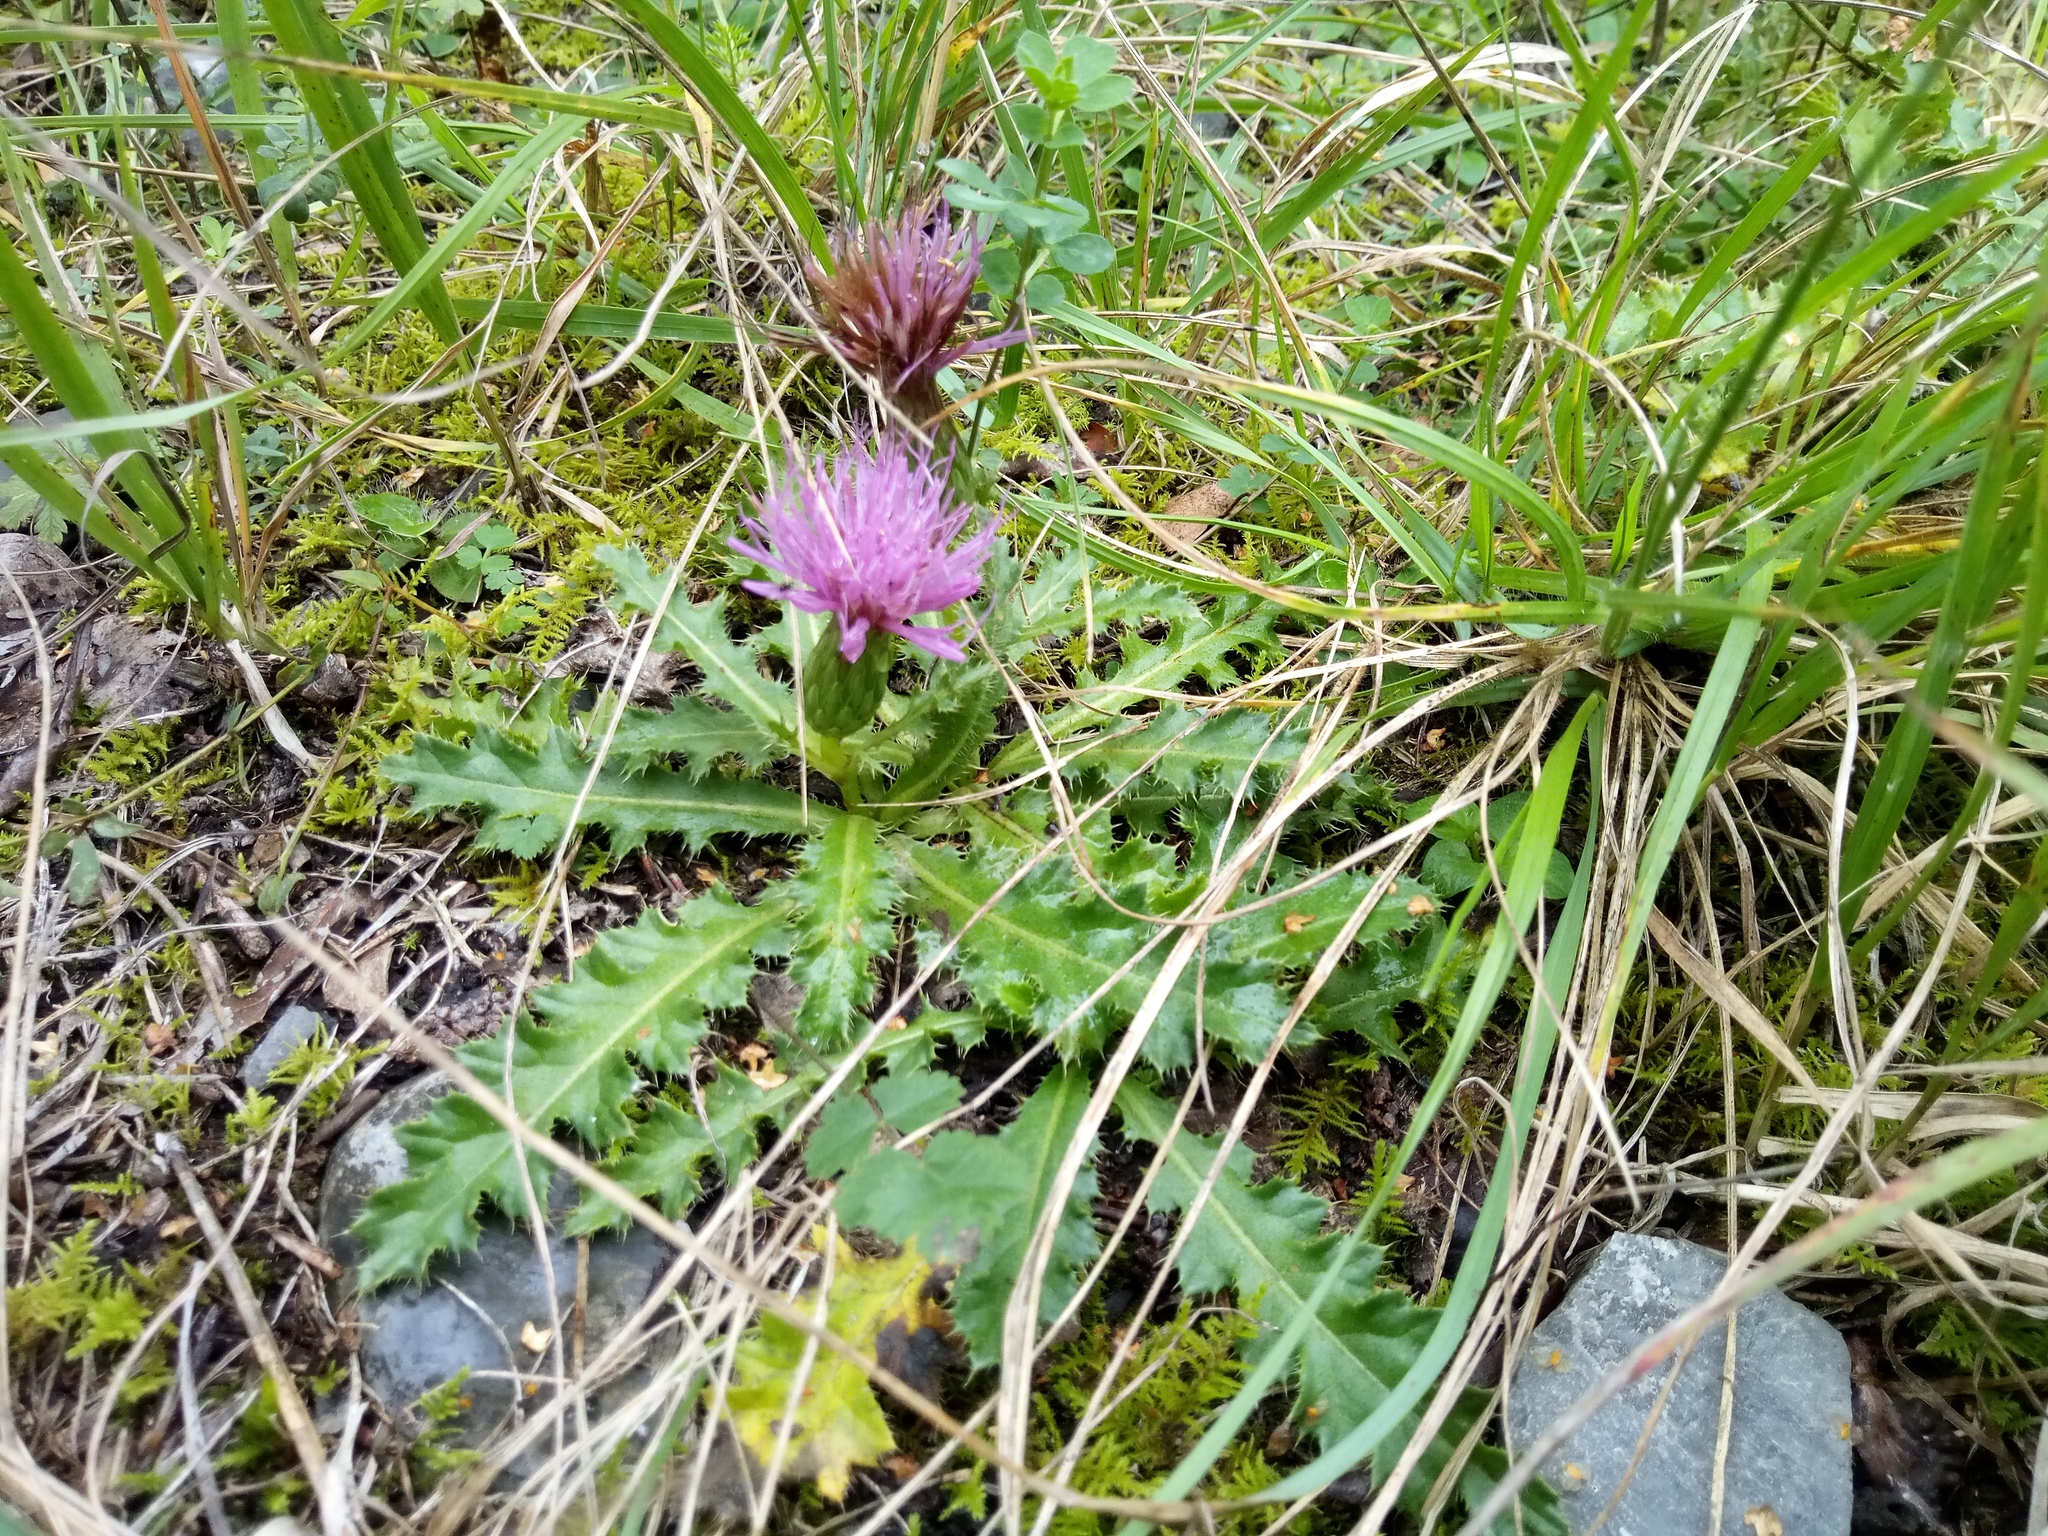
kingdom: Plantae
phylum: Tracheophyta
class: Magnoliopsida
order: Asterales
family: Asteraceae
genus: Cirsium
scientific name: Cirsium acaulon
